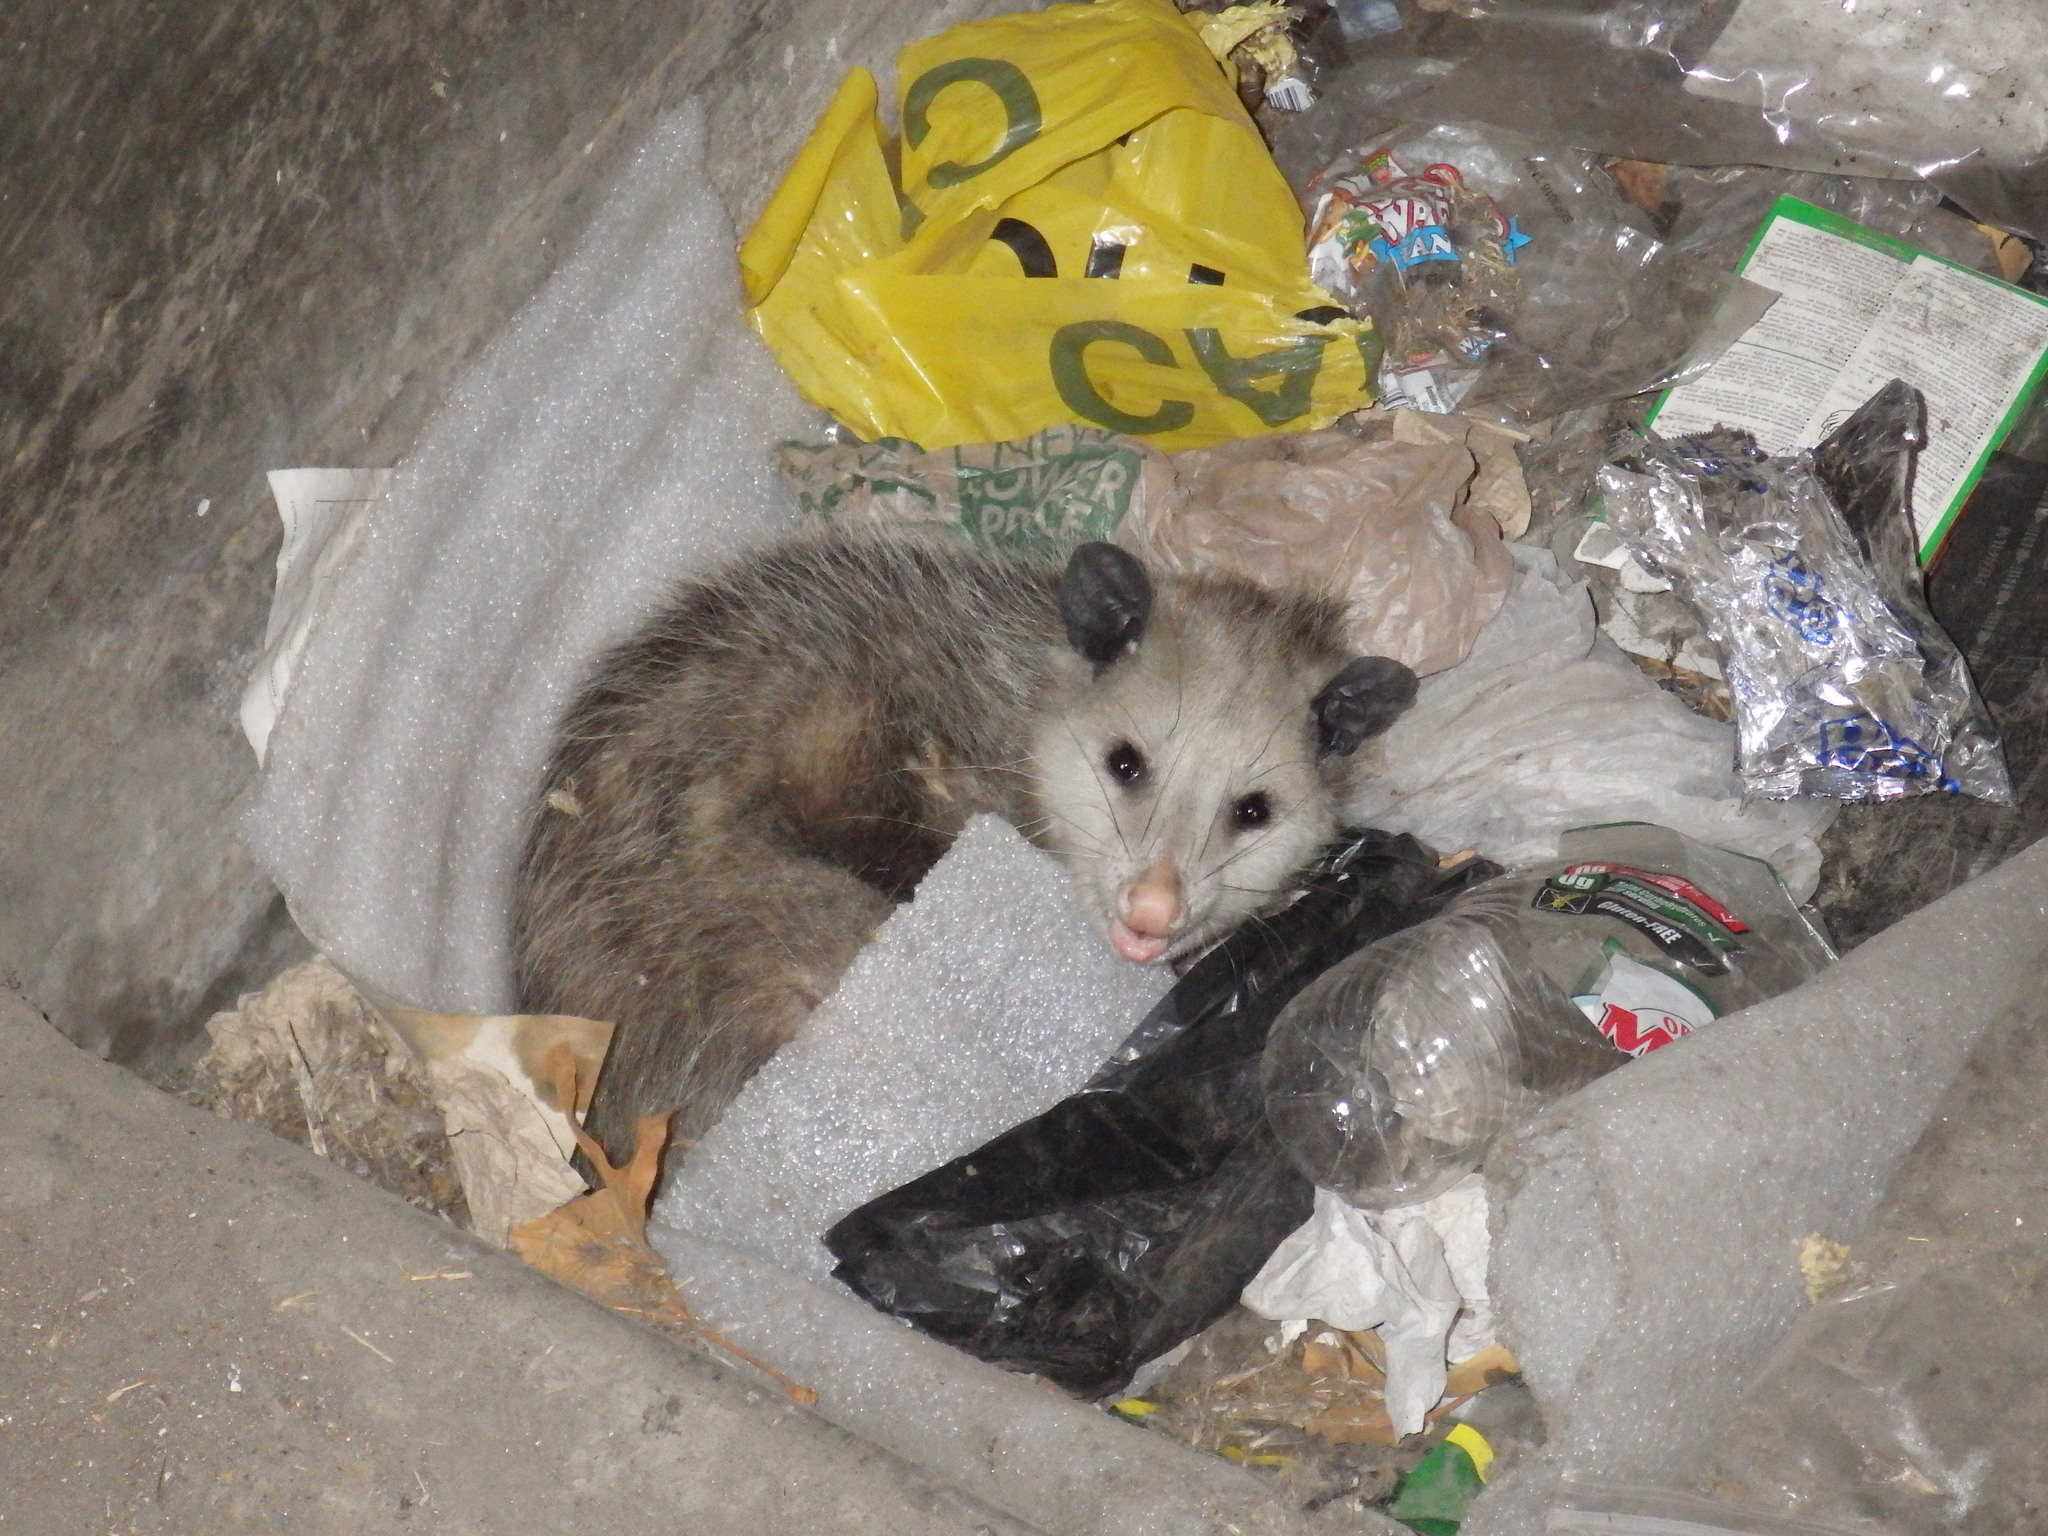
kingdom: Animalia
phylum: Chordata
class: Mammalia
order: Didelphimorphia
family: Didelphidae
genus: Didelphis
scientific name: Didelphis virginiana
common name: Virginia opossum
